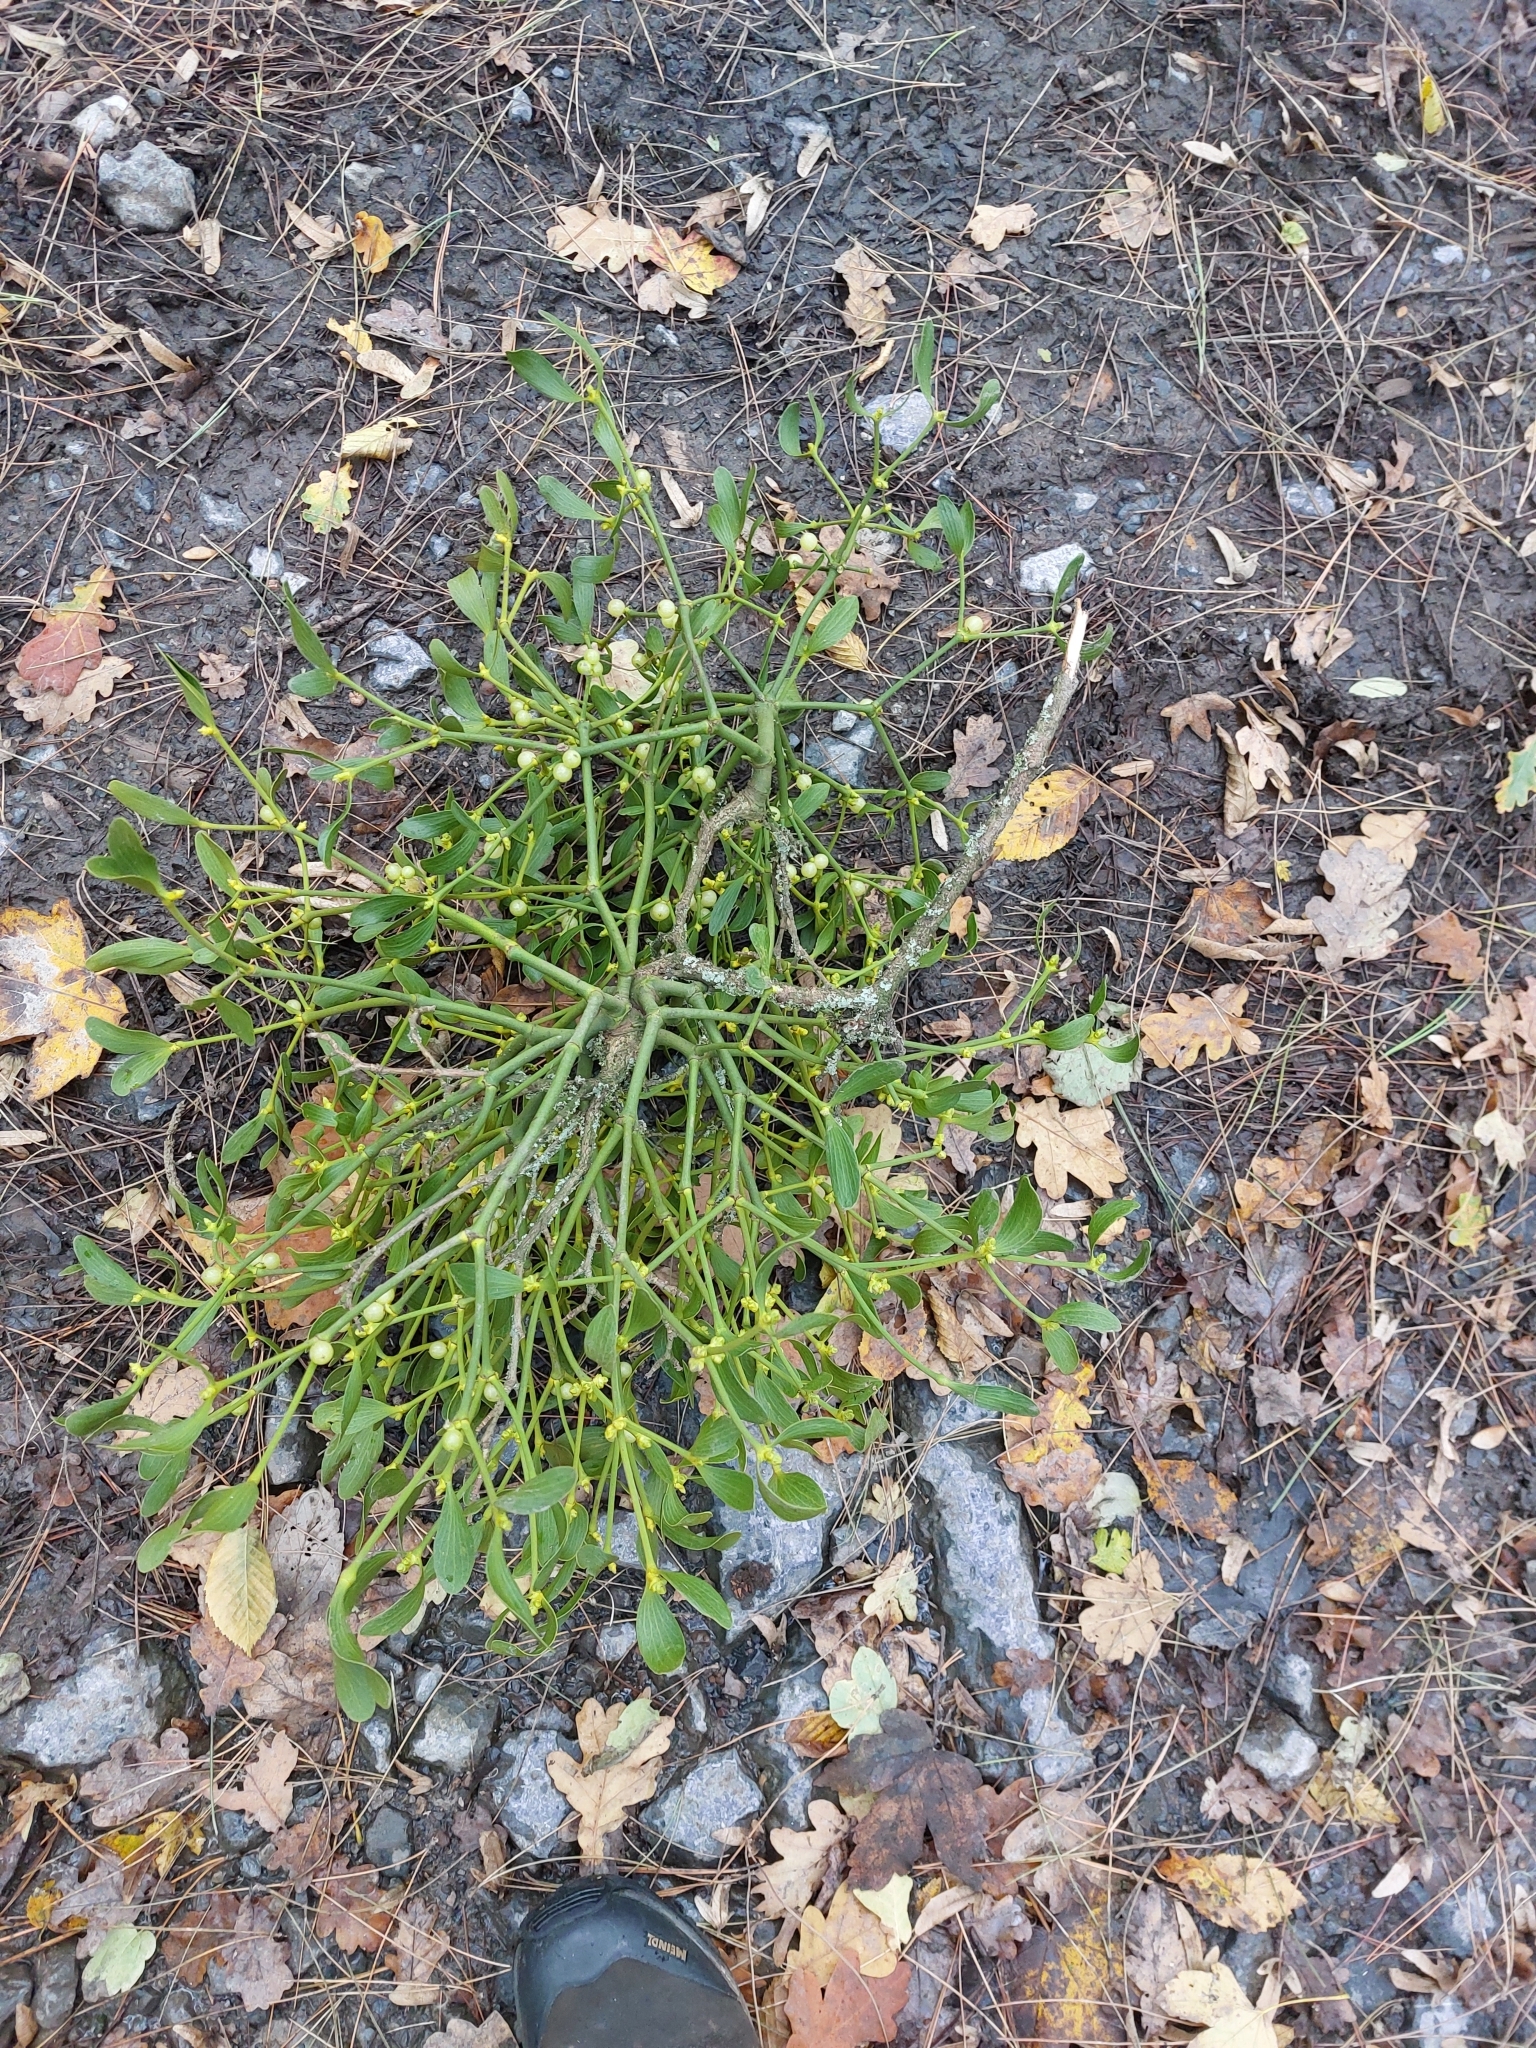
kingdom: Plantae
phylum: Tracheophyta
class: Magnoliopsida
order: Santalales
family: Viscaceae
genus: Viscum
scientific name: Viscum album
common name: Mistletoe
